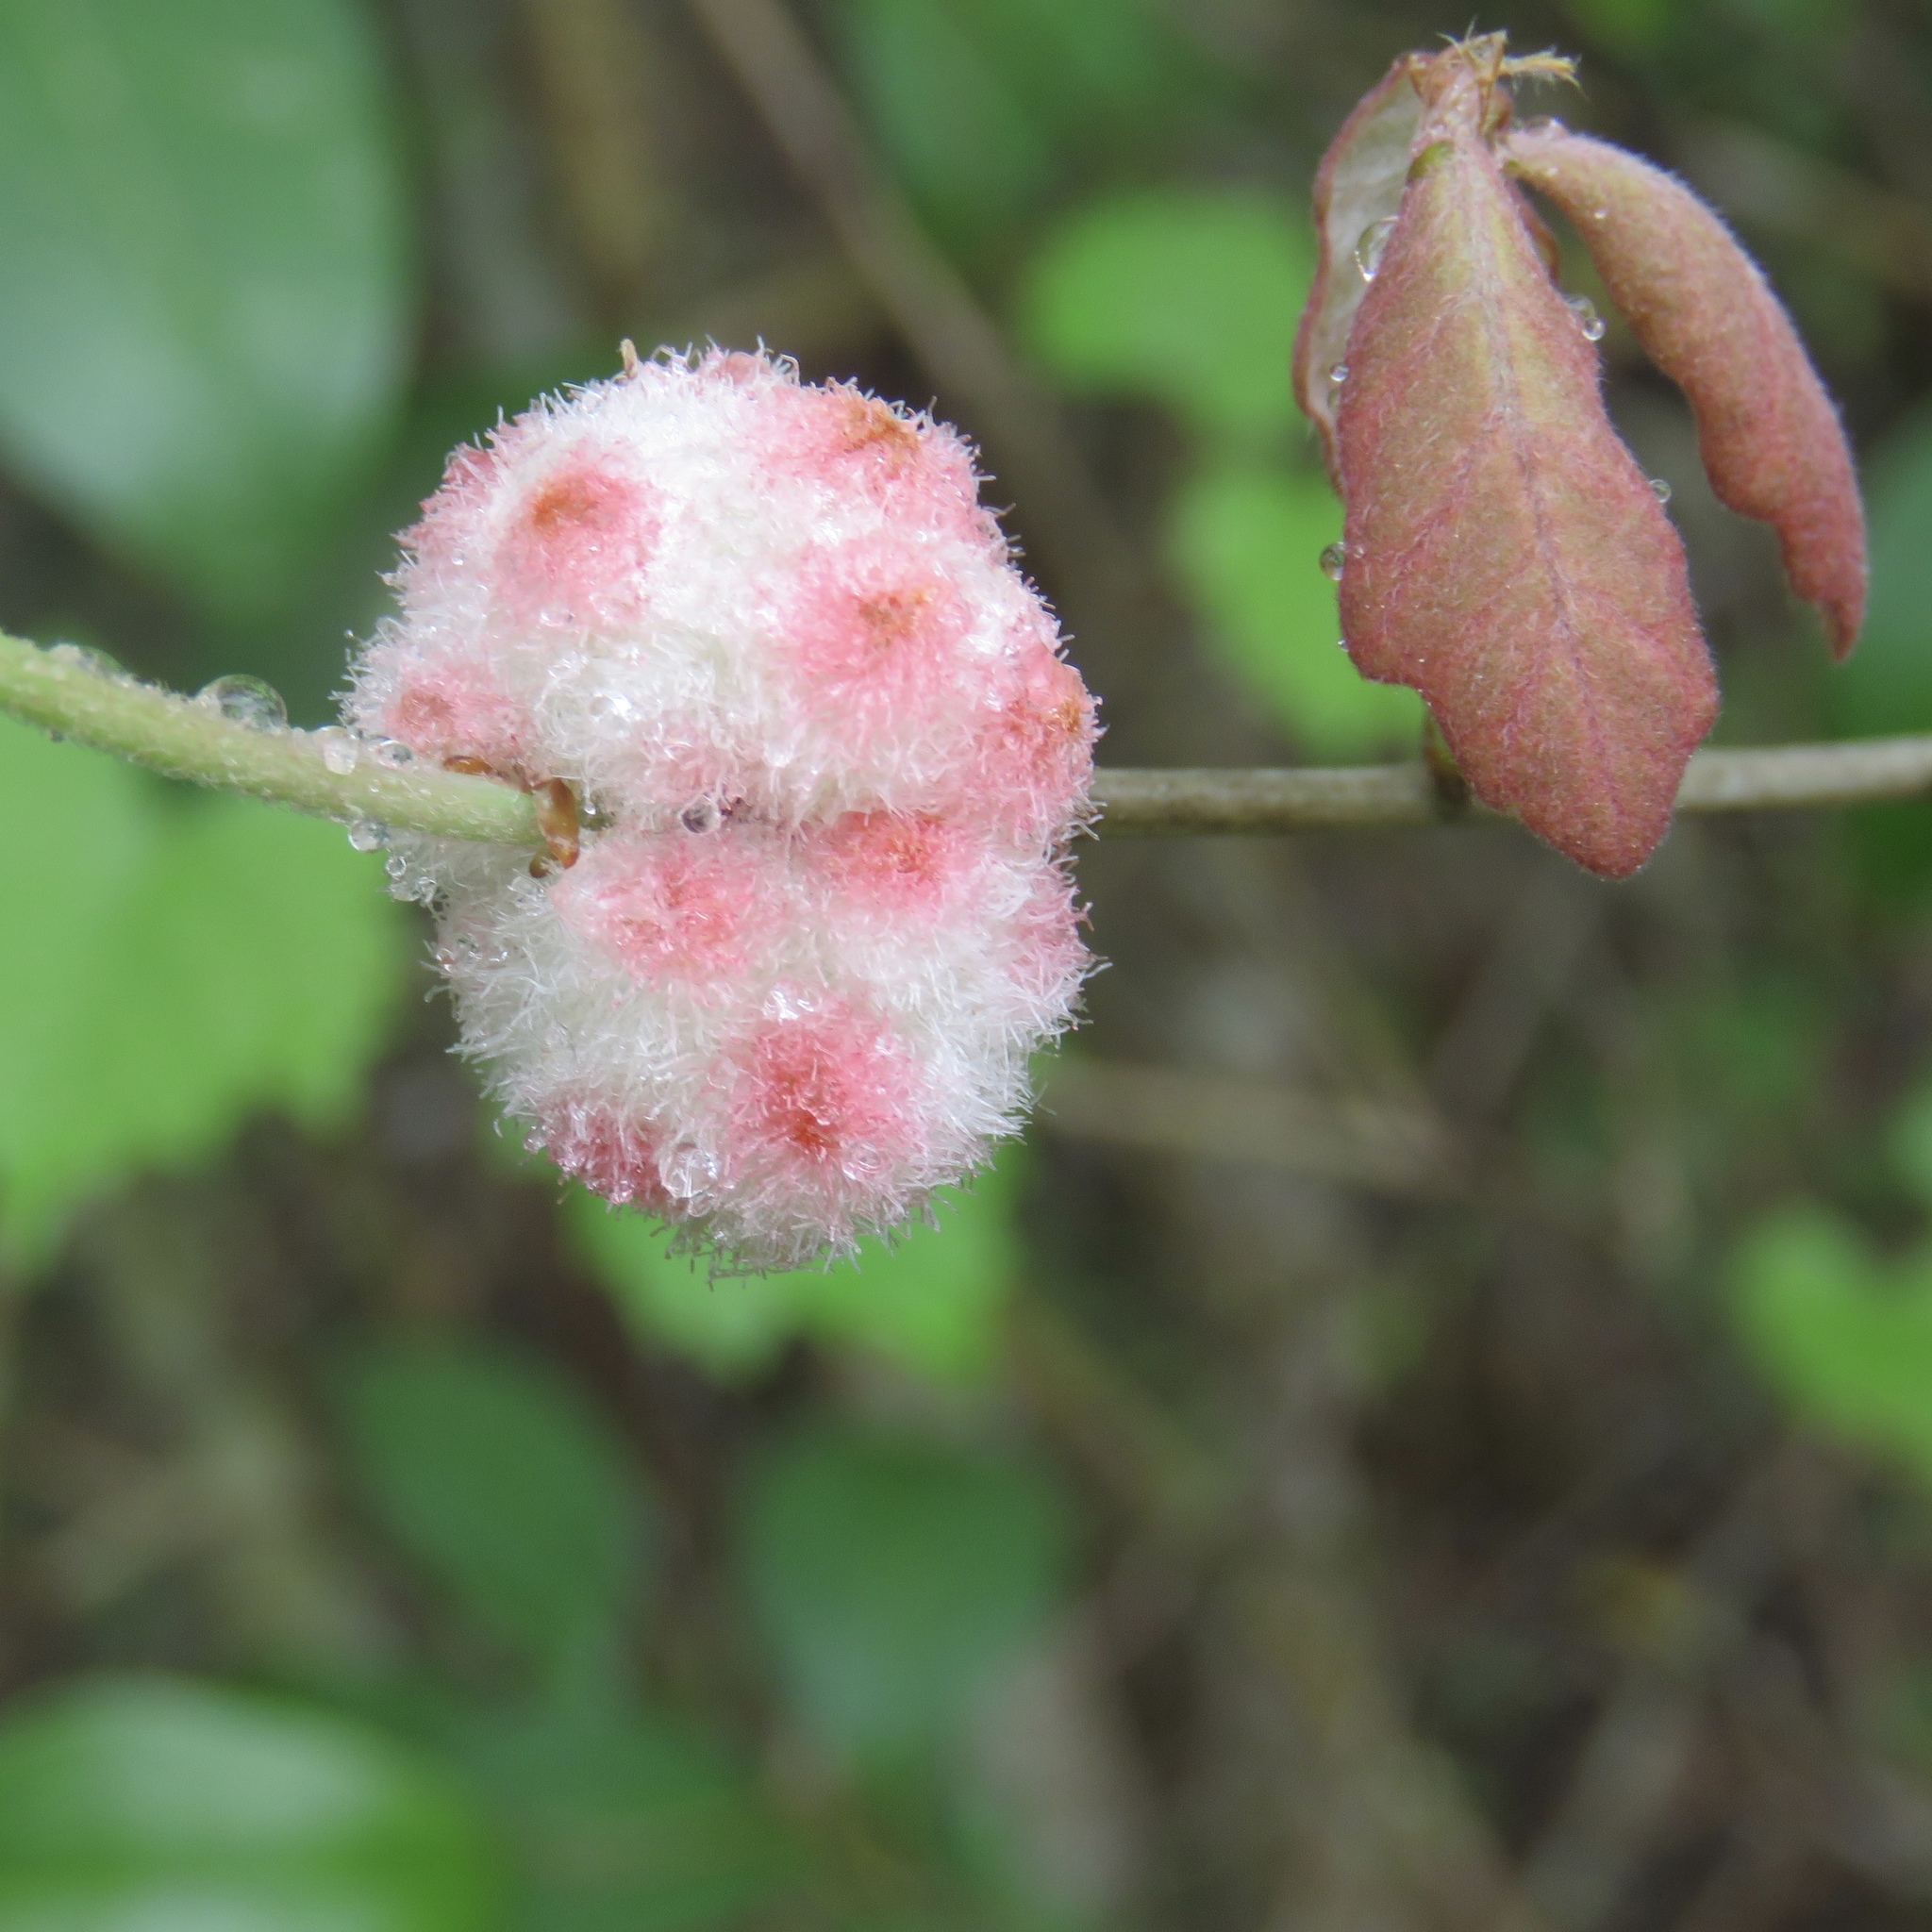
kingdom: Animalia
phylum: Arthropoda
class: Insecta
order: Hymenoptera
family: Cynipidae
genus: Callirhytis
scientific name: Callirhytis
